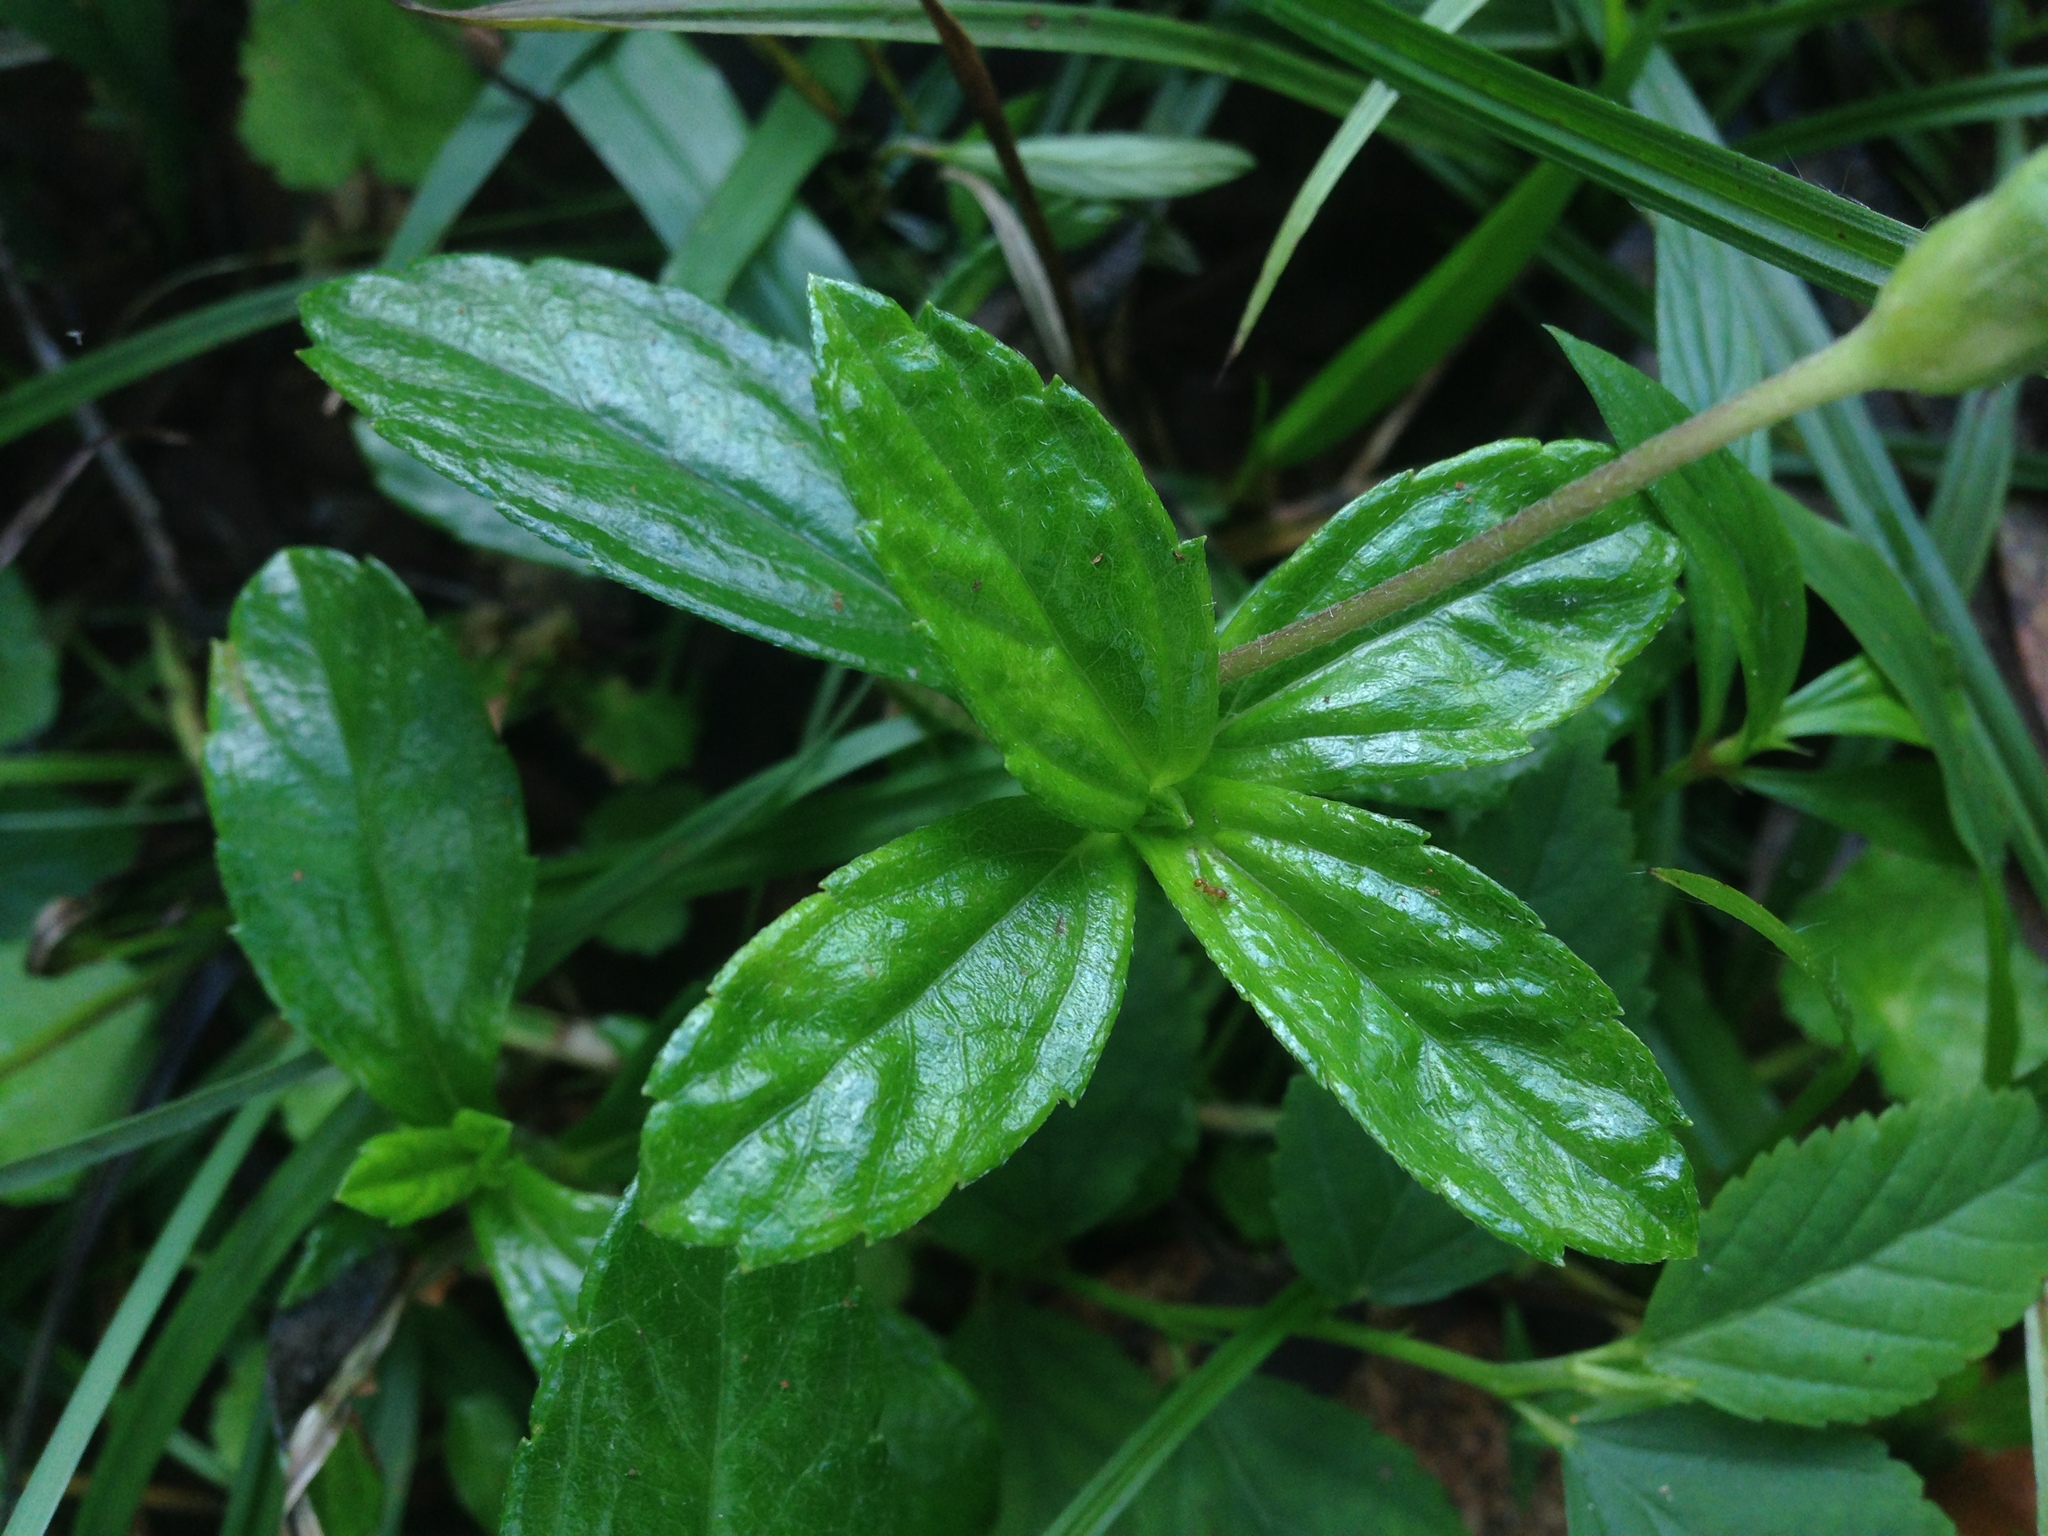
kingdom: Plantae
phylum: Tracheophyta
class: Magnoliopsida
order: Asterales
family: Asteraceae
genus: Sphagneticola
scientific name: Sphagneticola trilobata
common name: Bay biscayne creeping-oxeye
